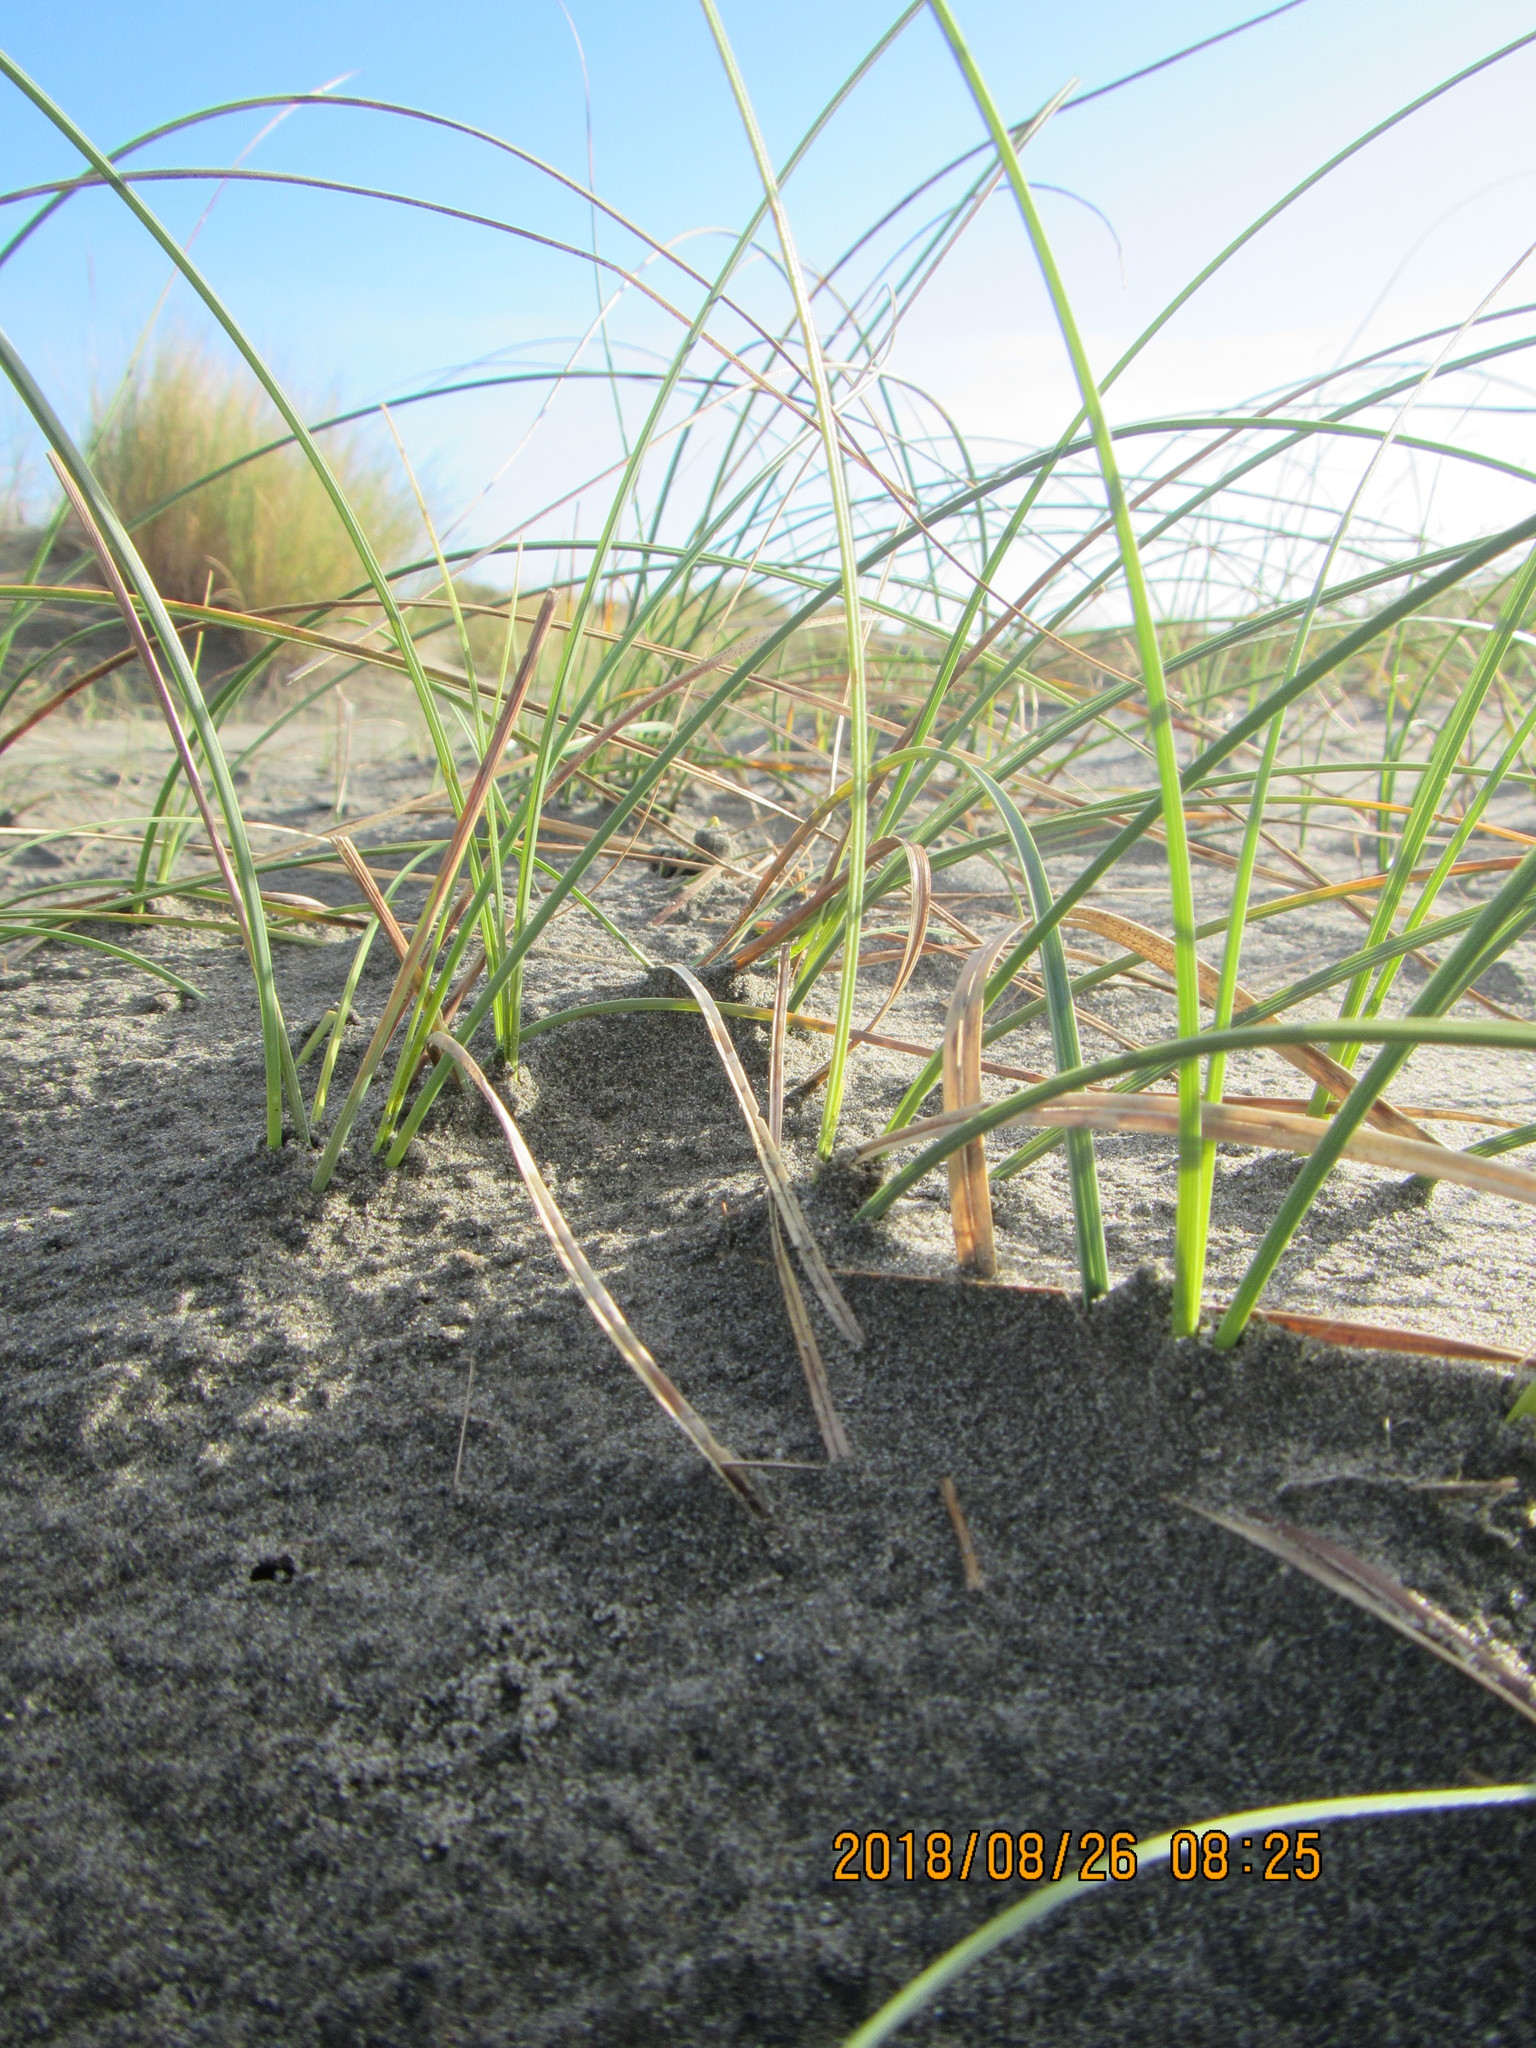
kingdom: Plantae
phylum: Tracheophyta
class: Liliopsida
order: Poales
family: Cyperaceae
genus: Carex
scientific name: Carex pumila
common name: Dwarf sedge
